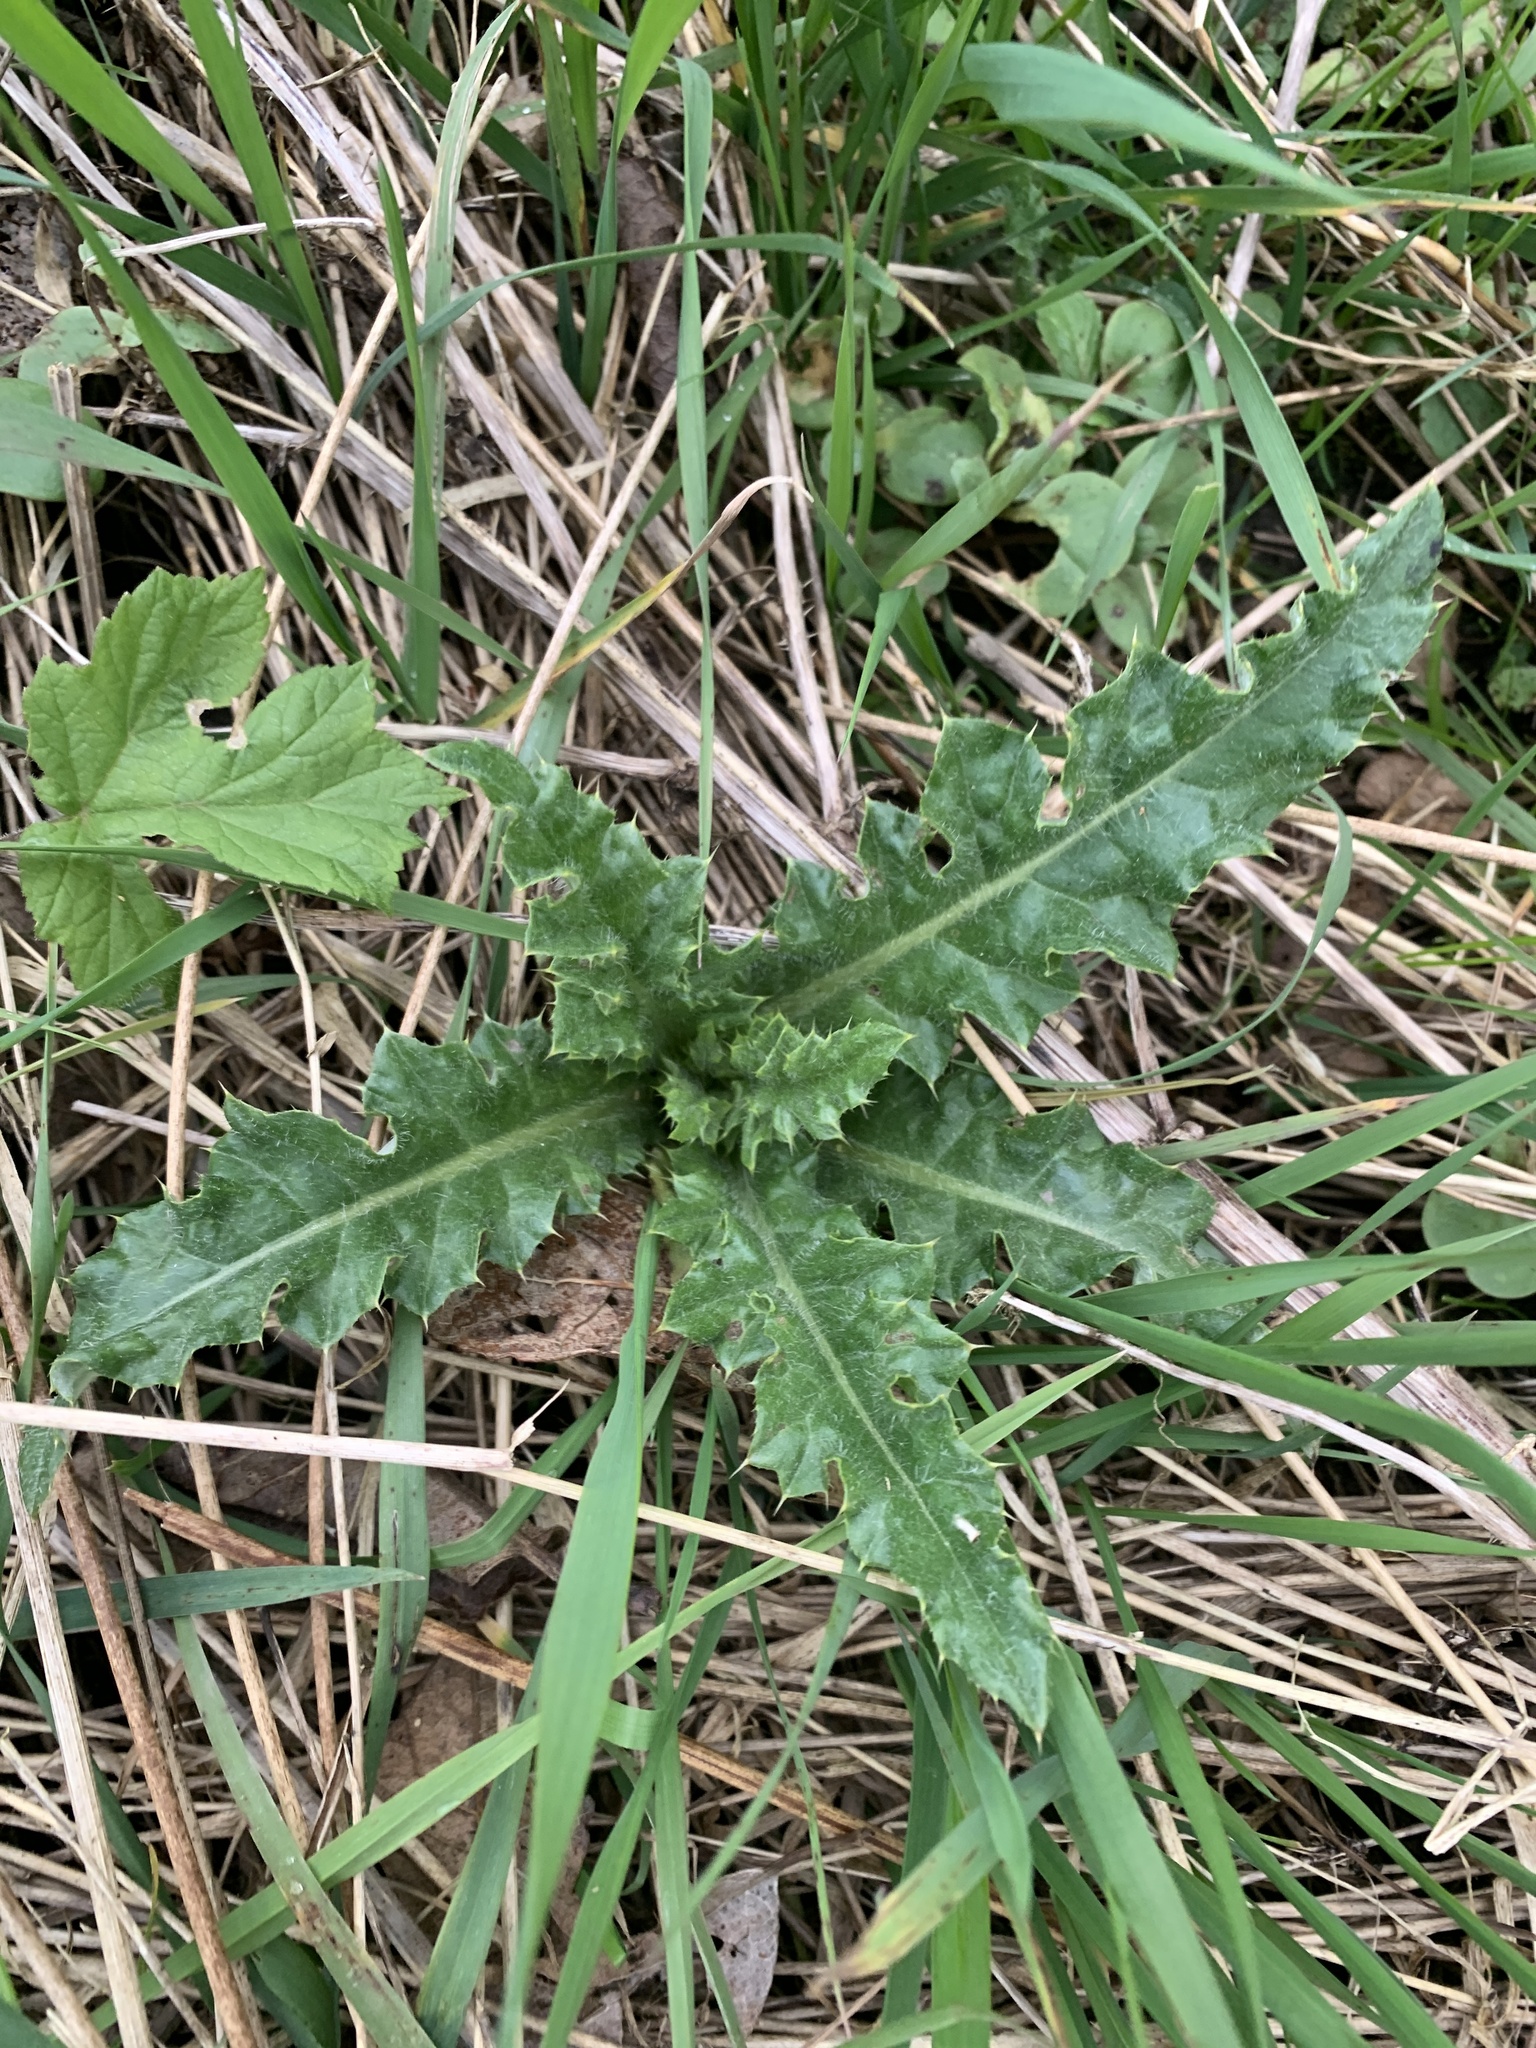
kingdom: Plantae
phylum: Tracheophyta
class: Magnoliopsida
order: Asterales
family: Asteraceae
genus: Cirsium
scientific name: Cirsium arvense
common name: Creeping thistle
